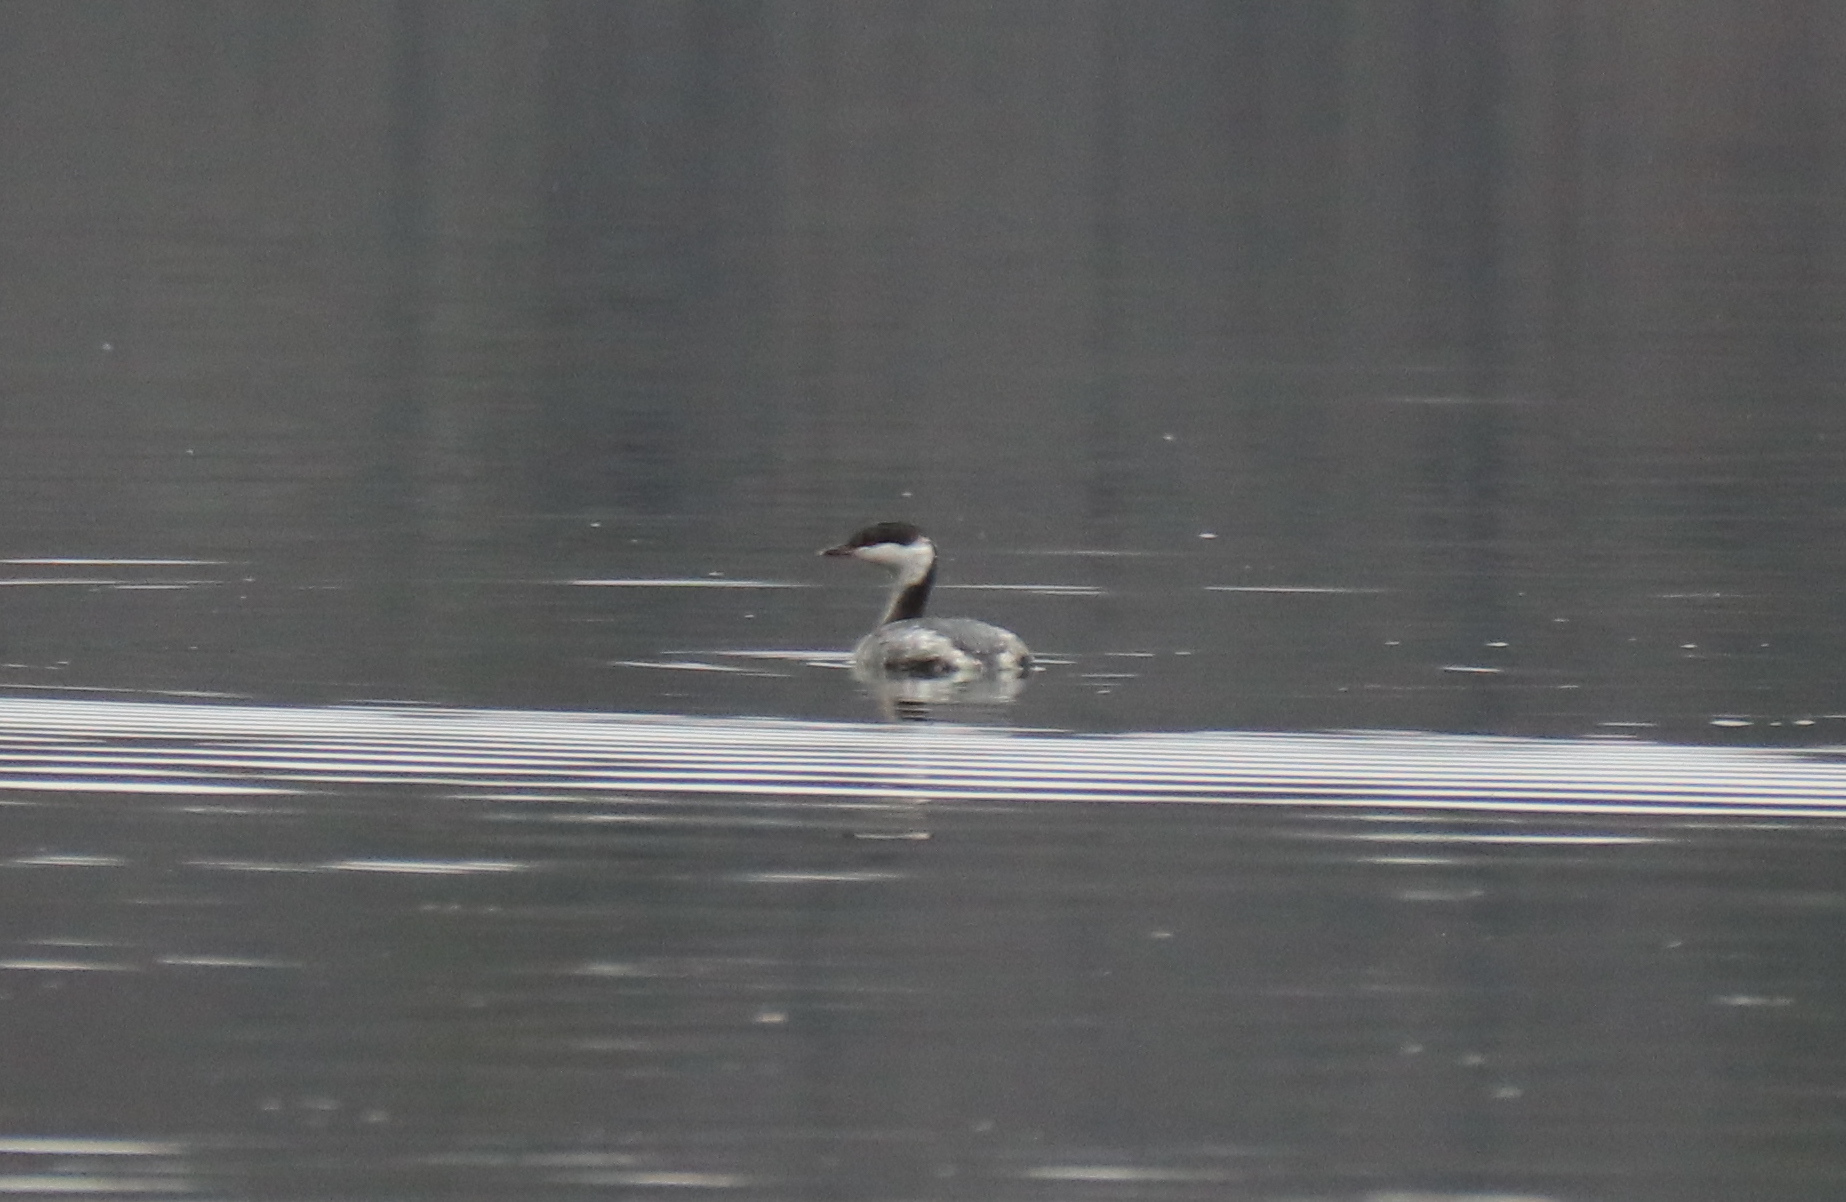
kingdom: Animalia
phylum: Chordata
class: Aves
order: Podicipediformes
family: Podicipedidae
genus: Podiceps
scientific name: Podiceps auritus
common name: Horned grebe
